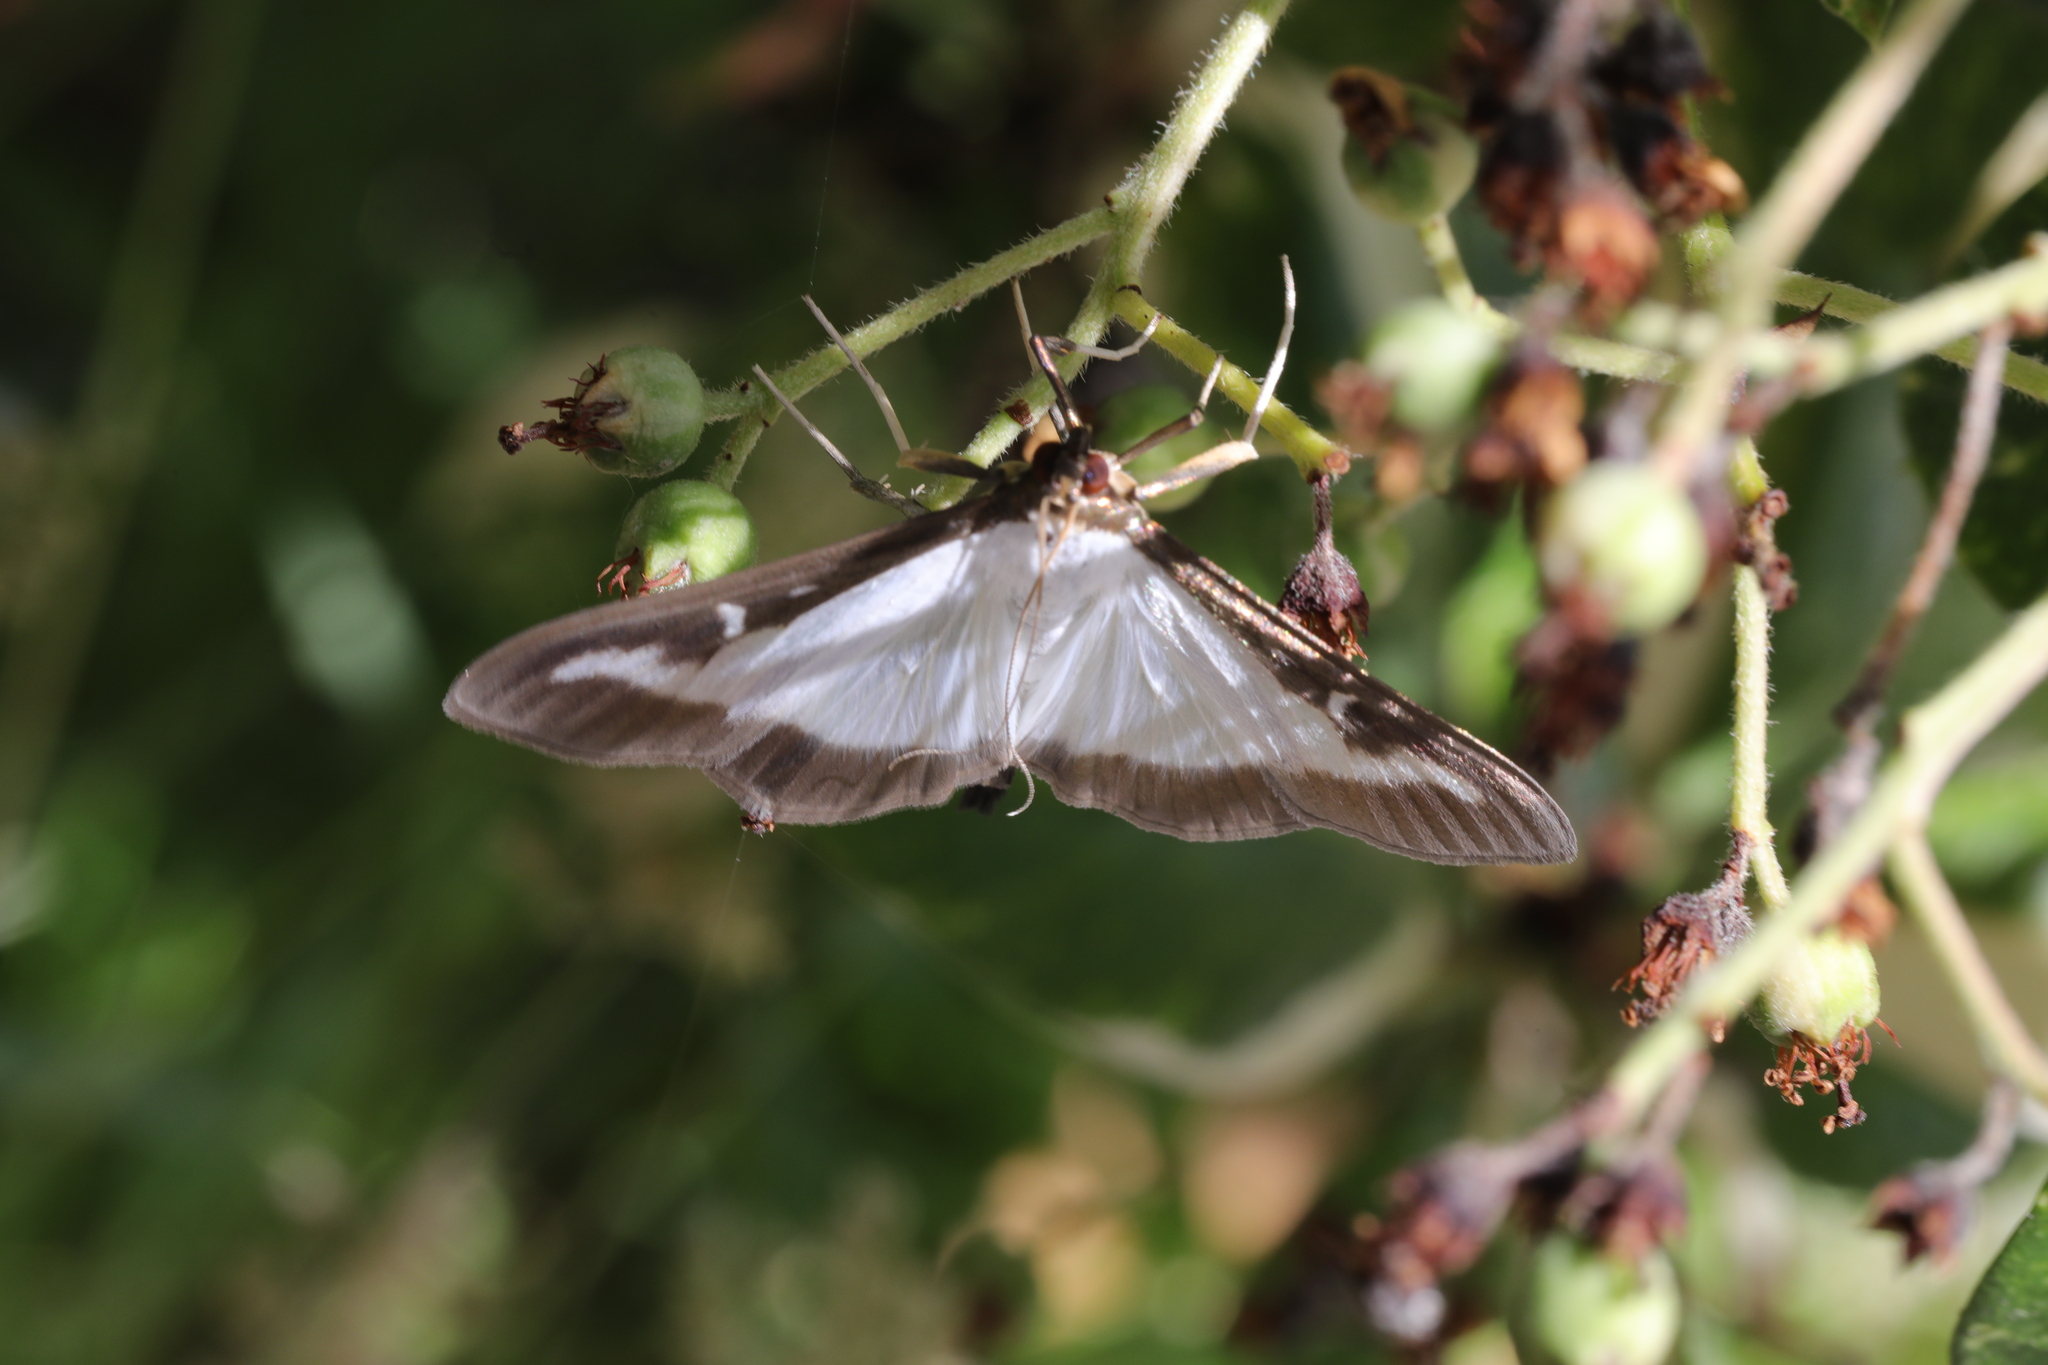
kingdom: Animalia
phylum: Arthropoda
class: Insecta
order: Lepidoptera
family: Crambidae
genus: Cydalima
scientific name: Cydalima perspectalis
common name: Box tree moth
